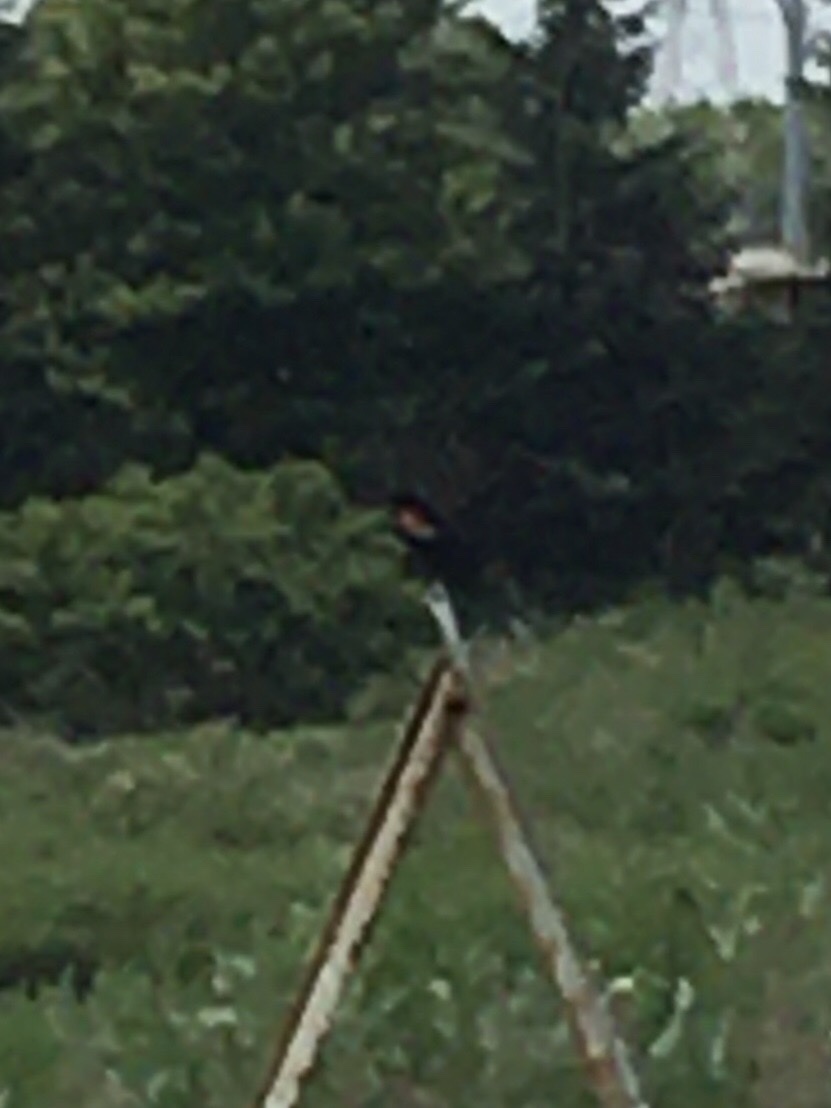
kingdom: Animalia
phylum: Chordata
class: Aves
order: Passeriformes
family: Icteridae
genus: Agelaius
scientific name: Agelaius phoeniceus
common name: Red-winged blackbird
